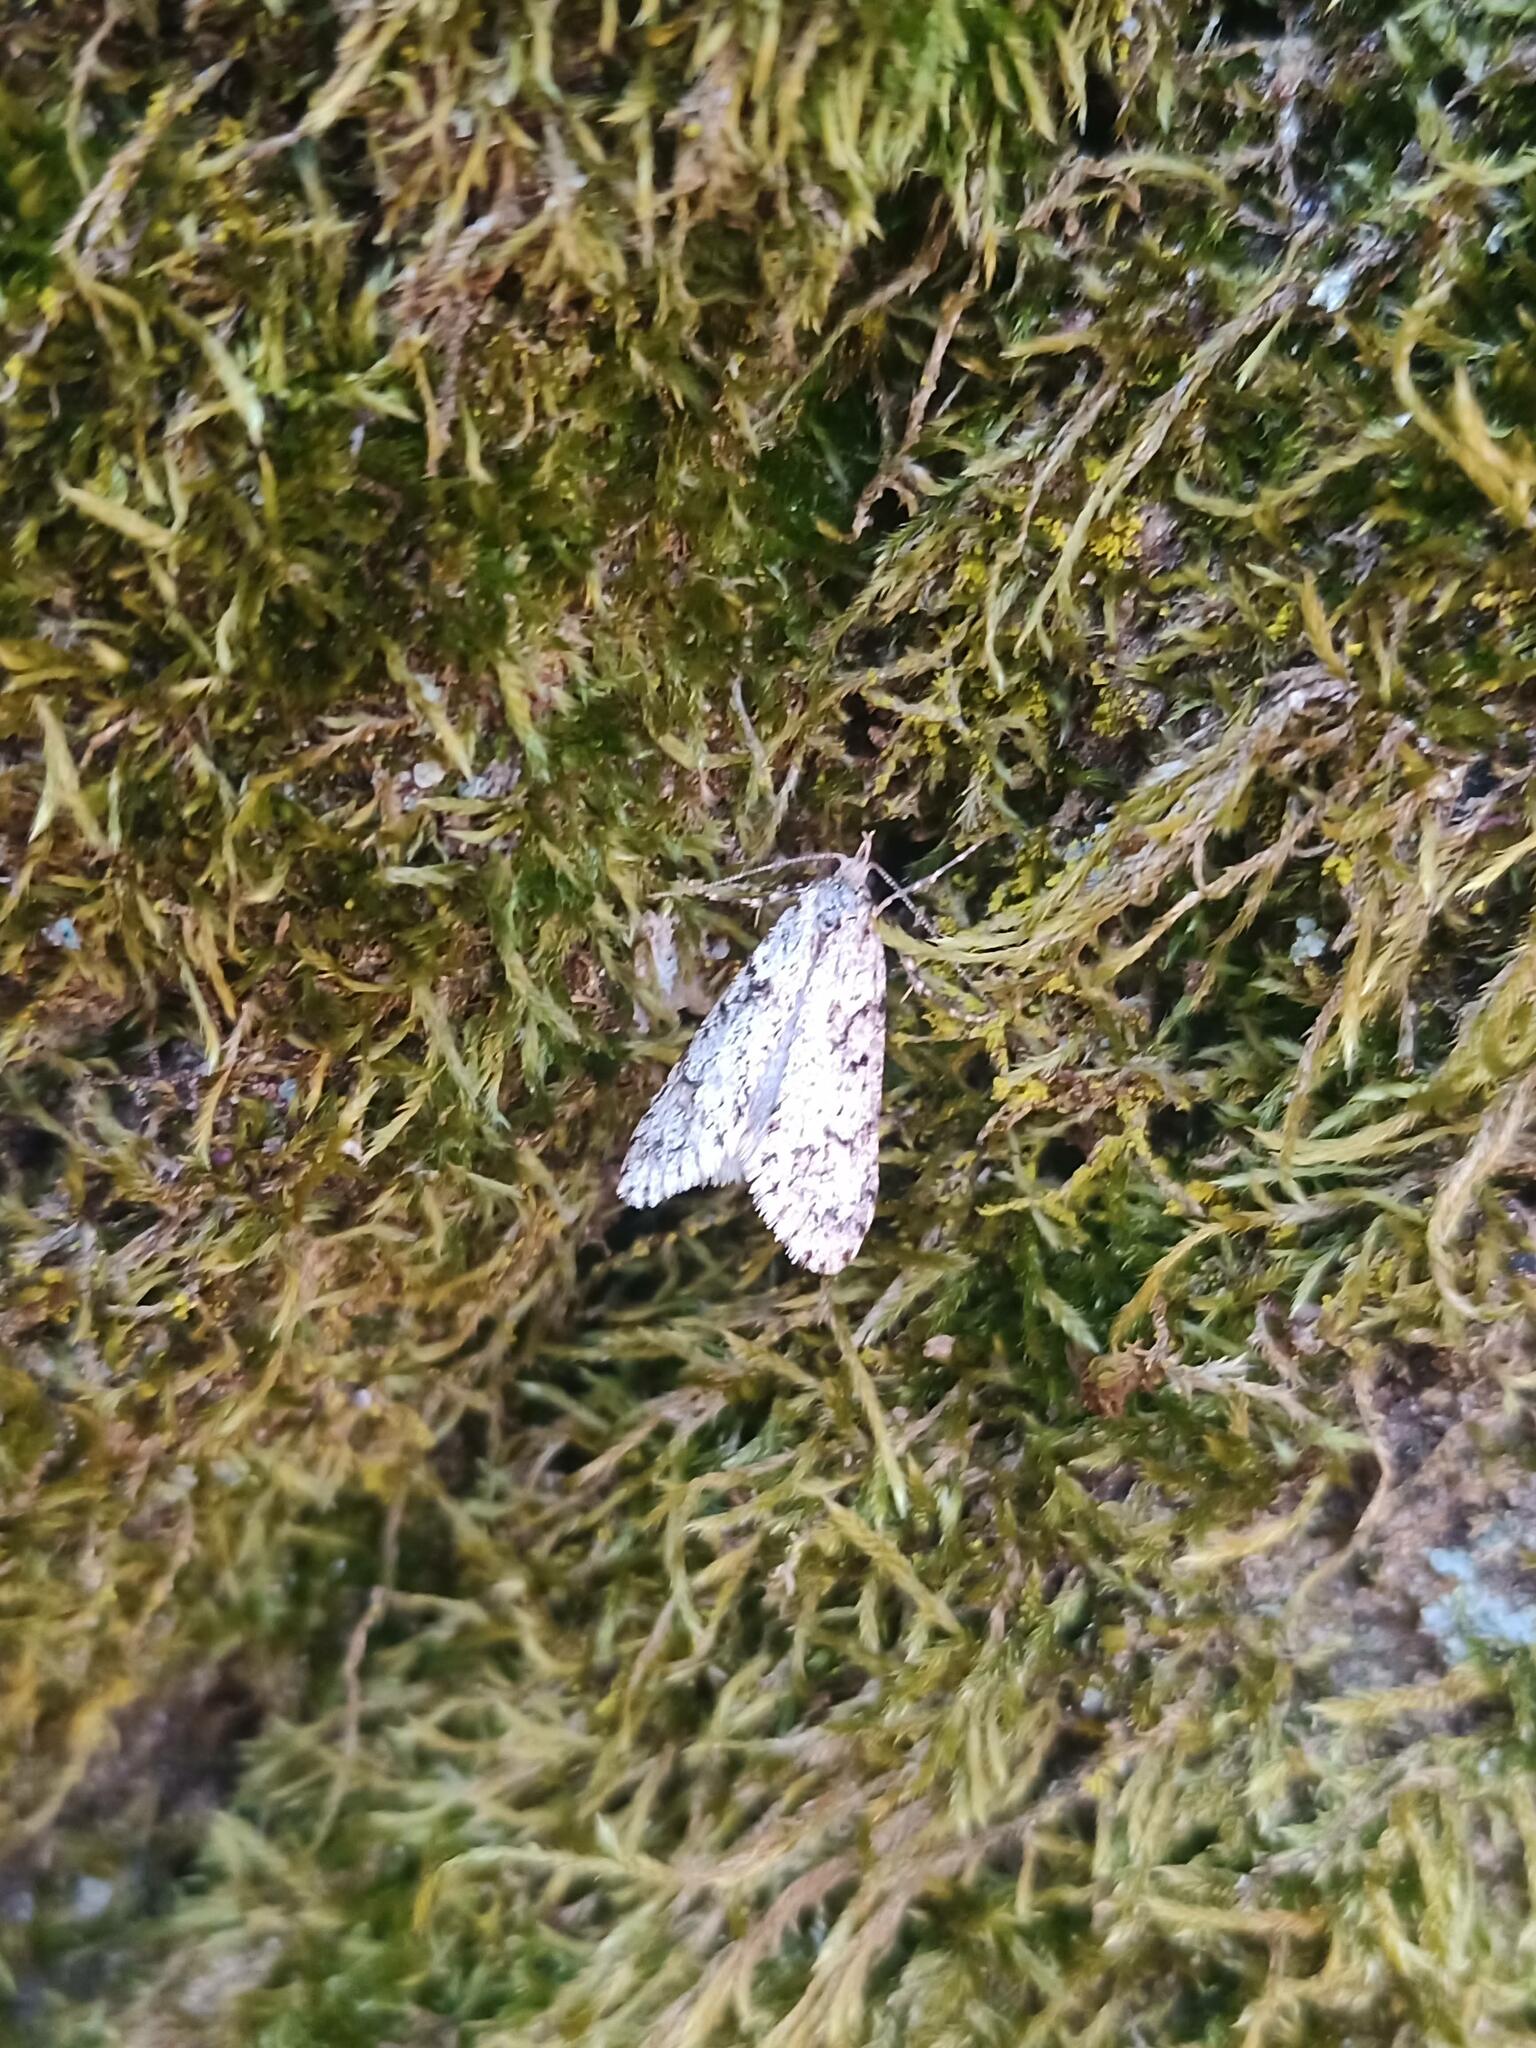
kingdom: Animalia
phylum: Arthropoda
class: Insecta
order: Lepidoptera
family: Lypusidae
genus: Diurnea
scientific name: Diurnea fagella
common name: March tubic
